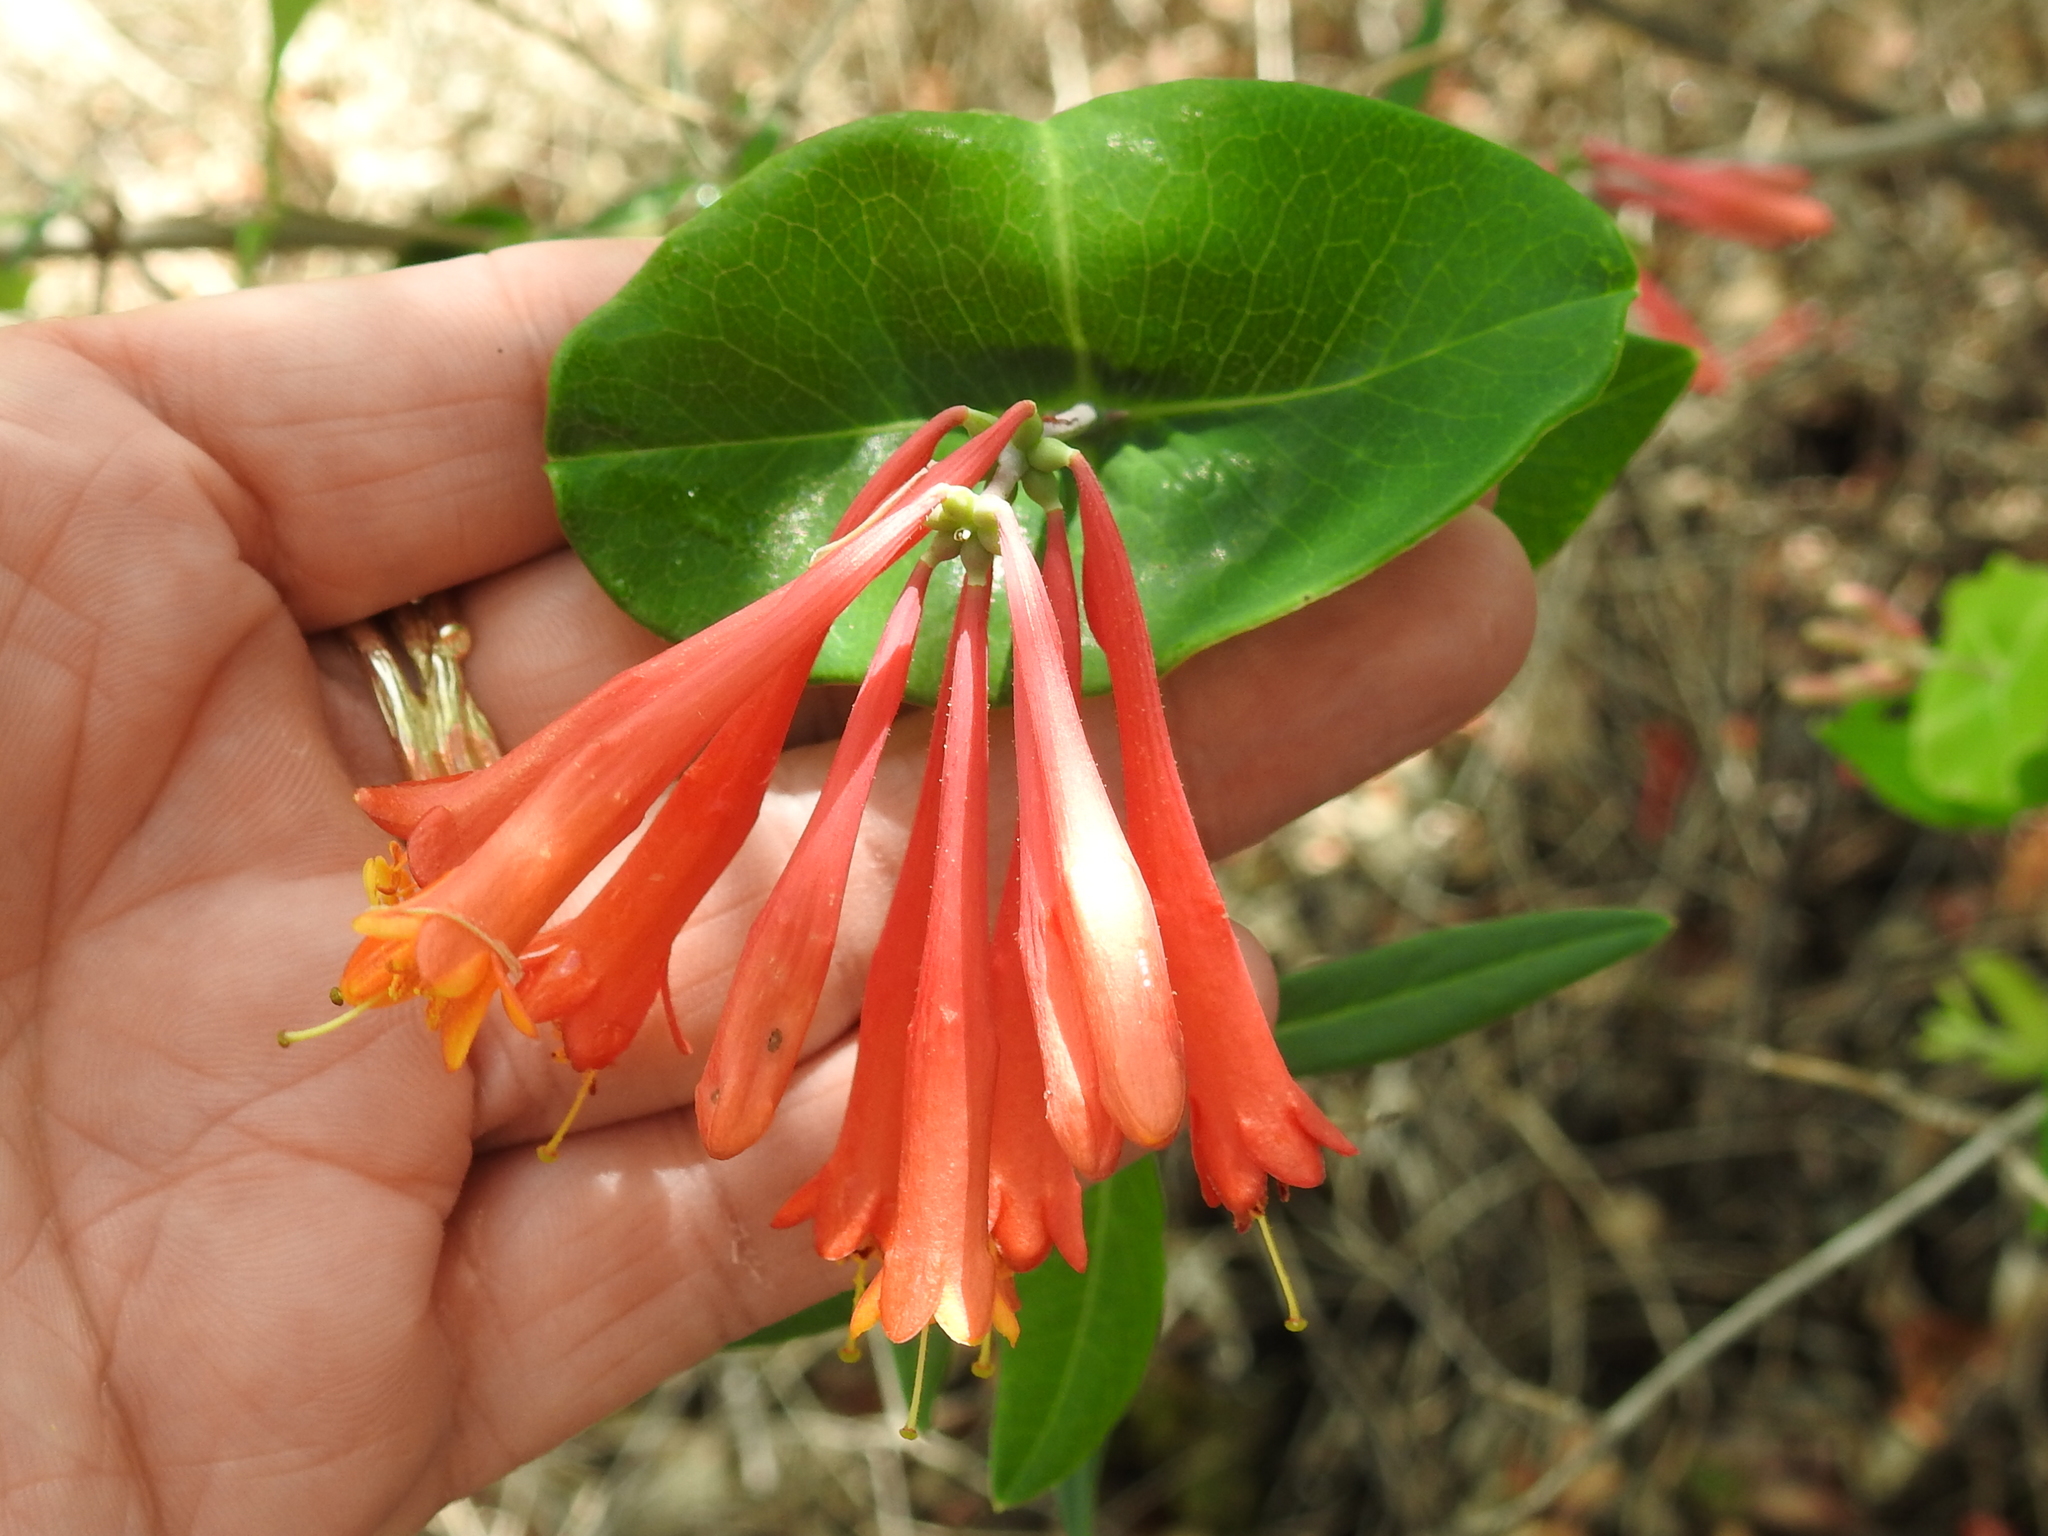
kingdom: Plantae
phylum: Tracheophyta
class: Magnoliopsida
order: Dipsacales
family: Caprifoliaceae
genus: Lonicera
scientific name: Lonicera sempervirens
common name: Coral honeysuckle
